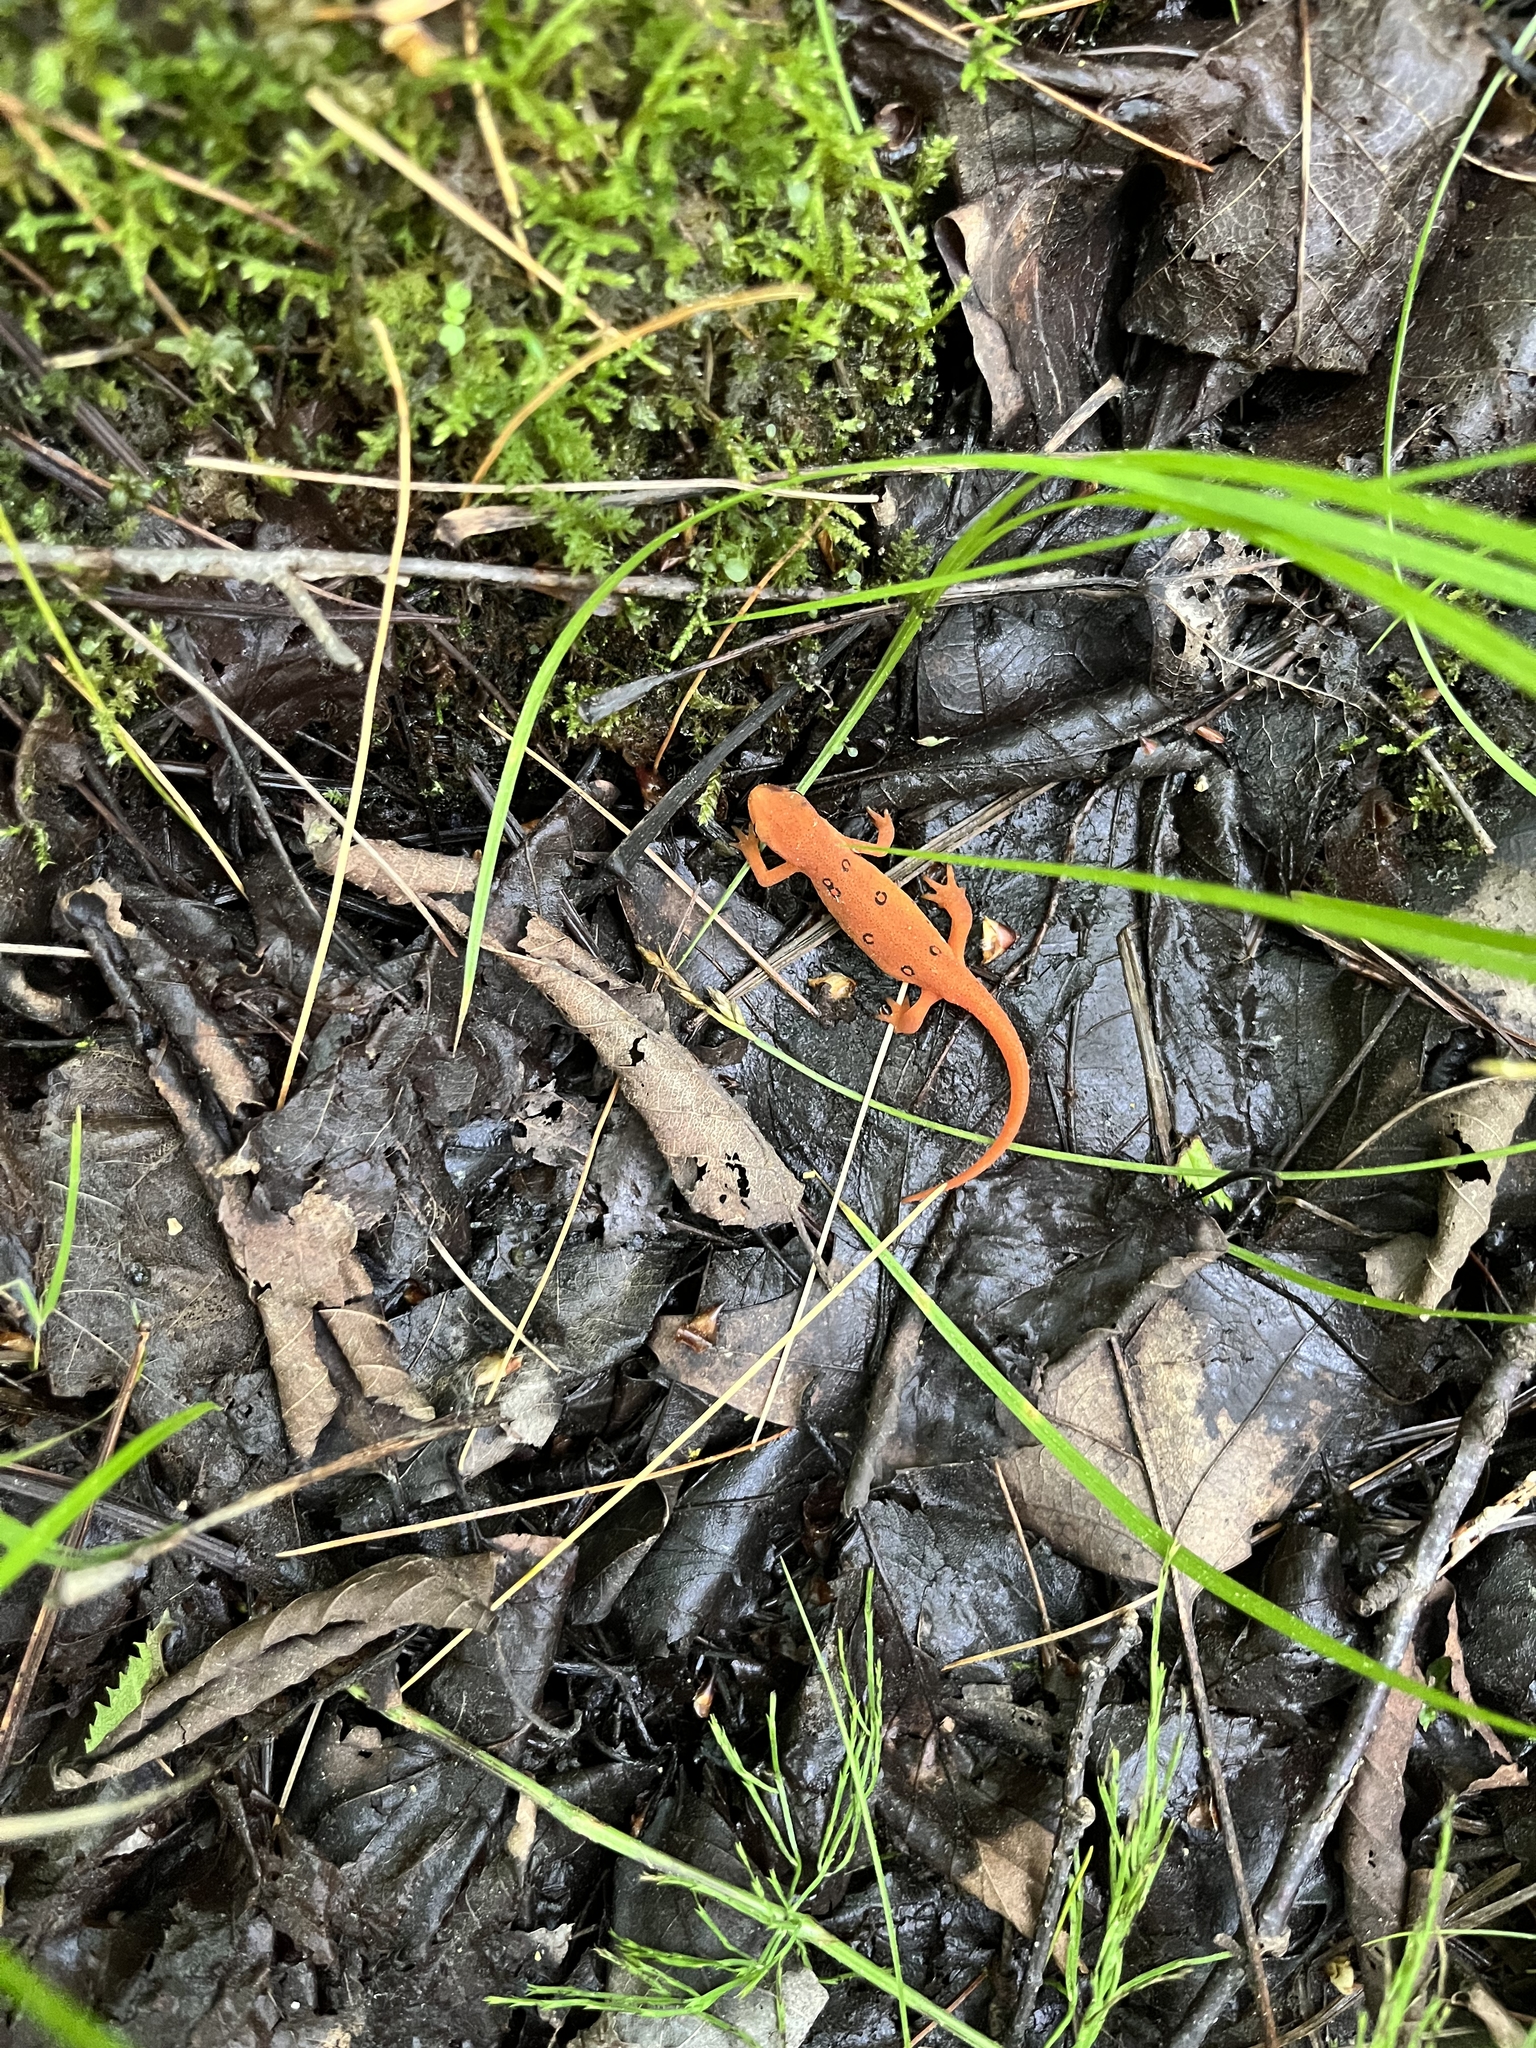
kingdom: Animalia
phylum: Chordata
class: Amphibia
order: Caudata
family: Salamandridae
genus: Notophthalmus
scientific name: Notophthalmus viridescens
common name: Eastern newt
